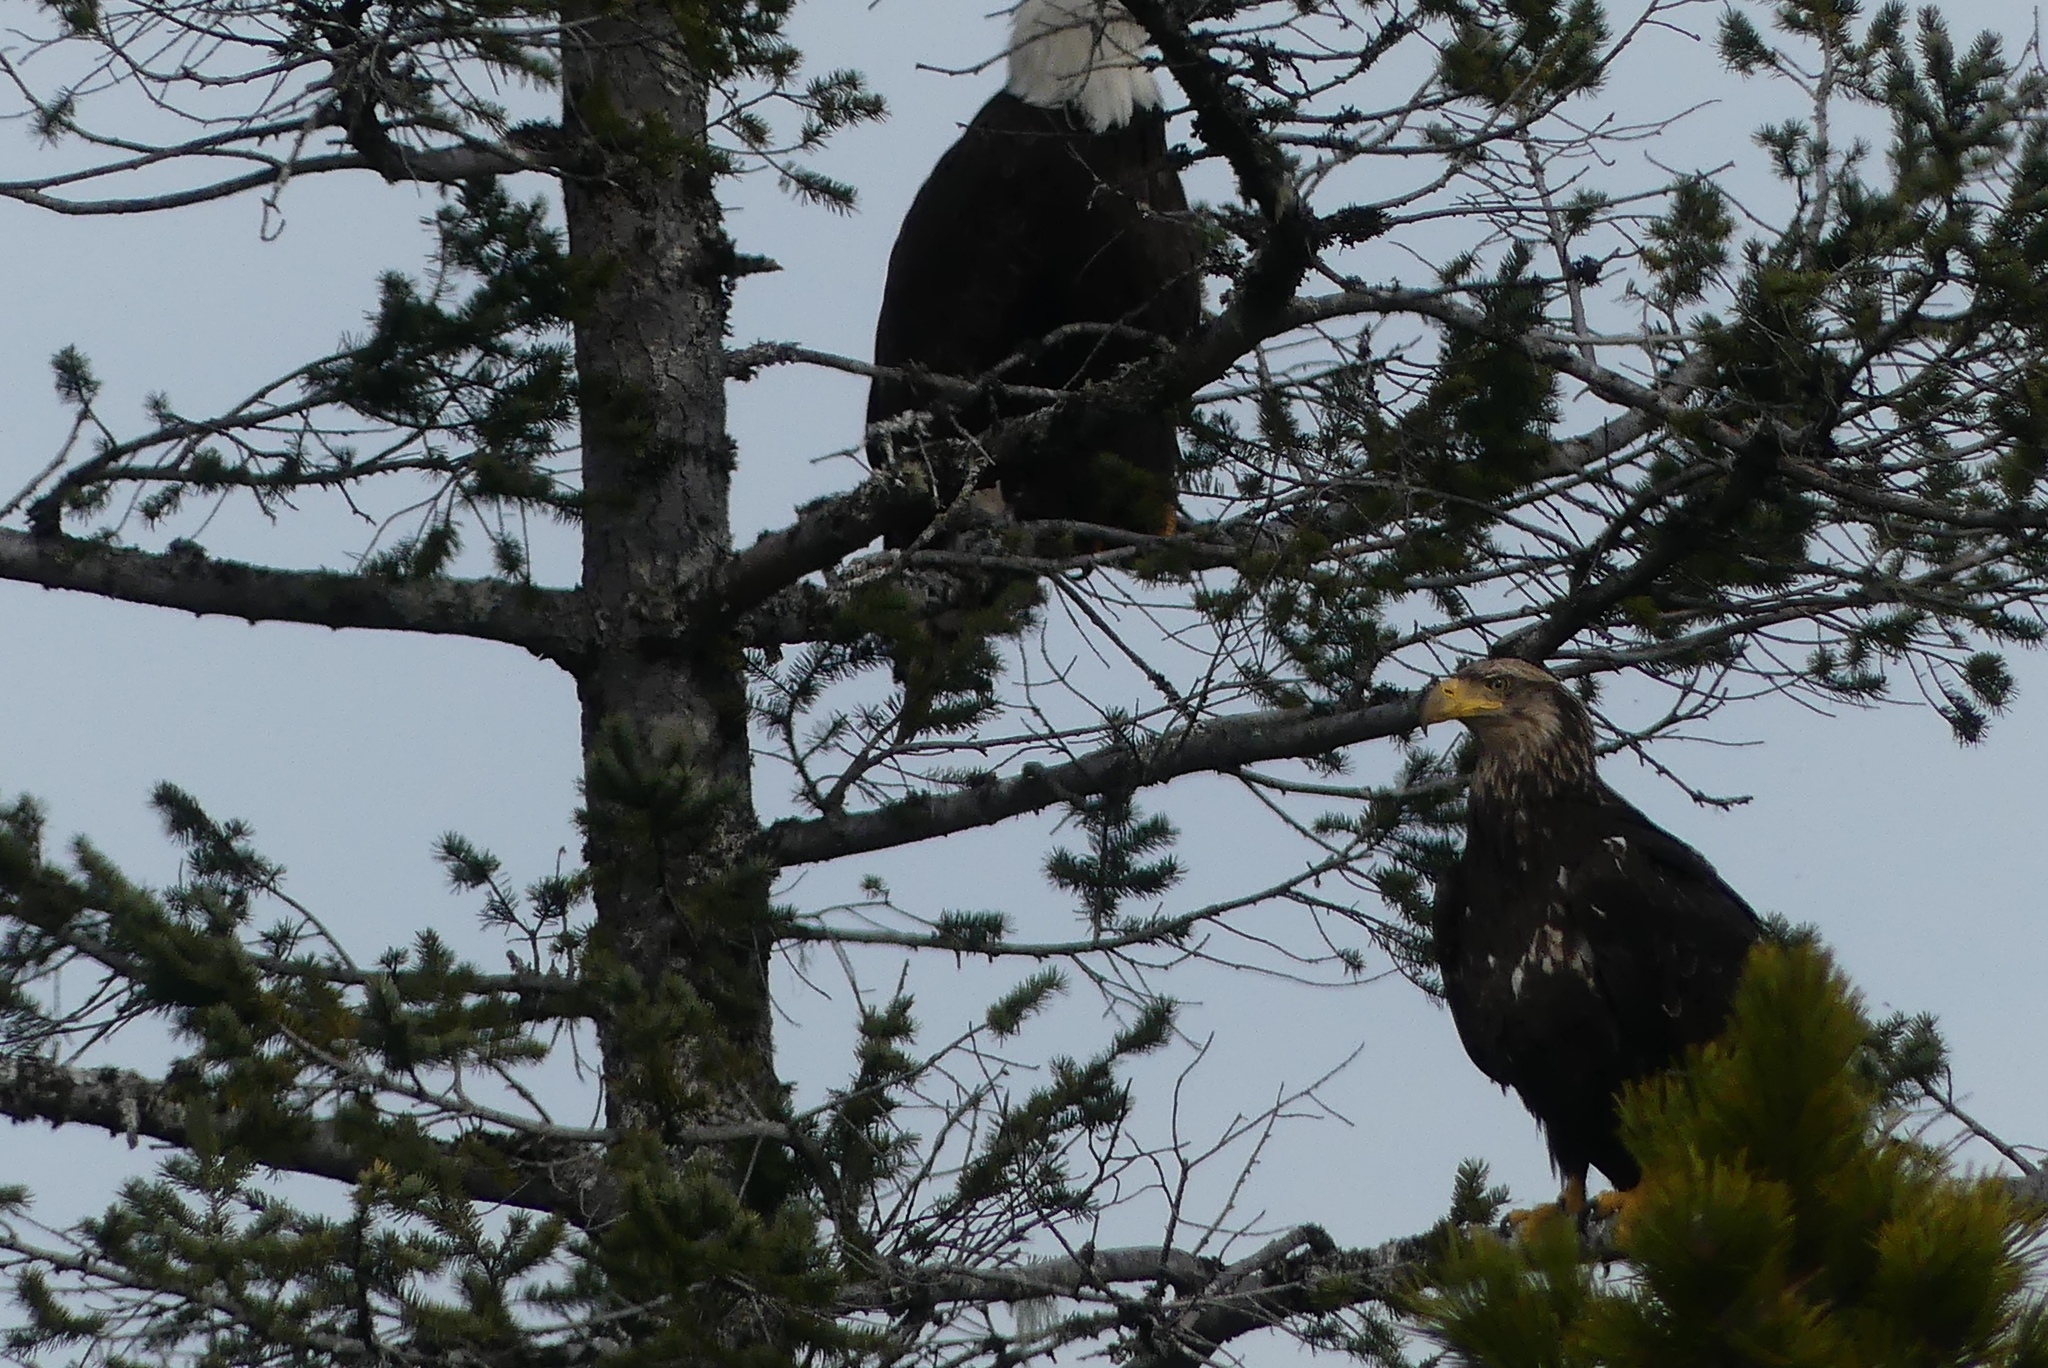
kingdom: Animalia
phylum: Chordata
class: Aves
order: Accipitriformes
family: Accipitridae
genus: Haliaeetus
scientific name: Haliaeetus leucocephalus
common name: Bald eagle
